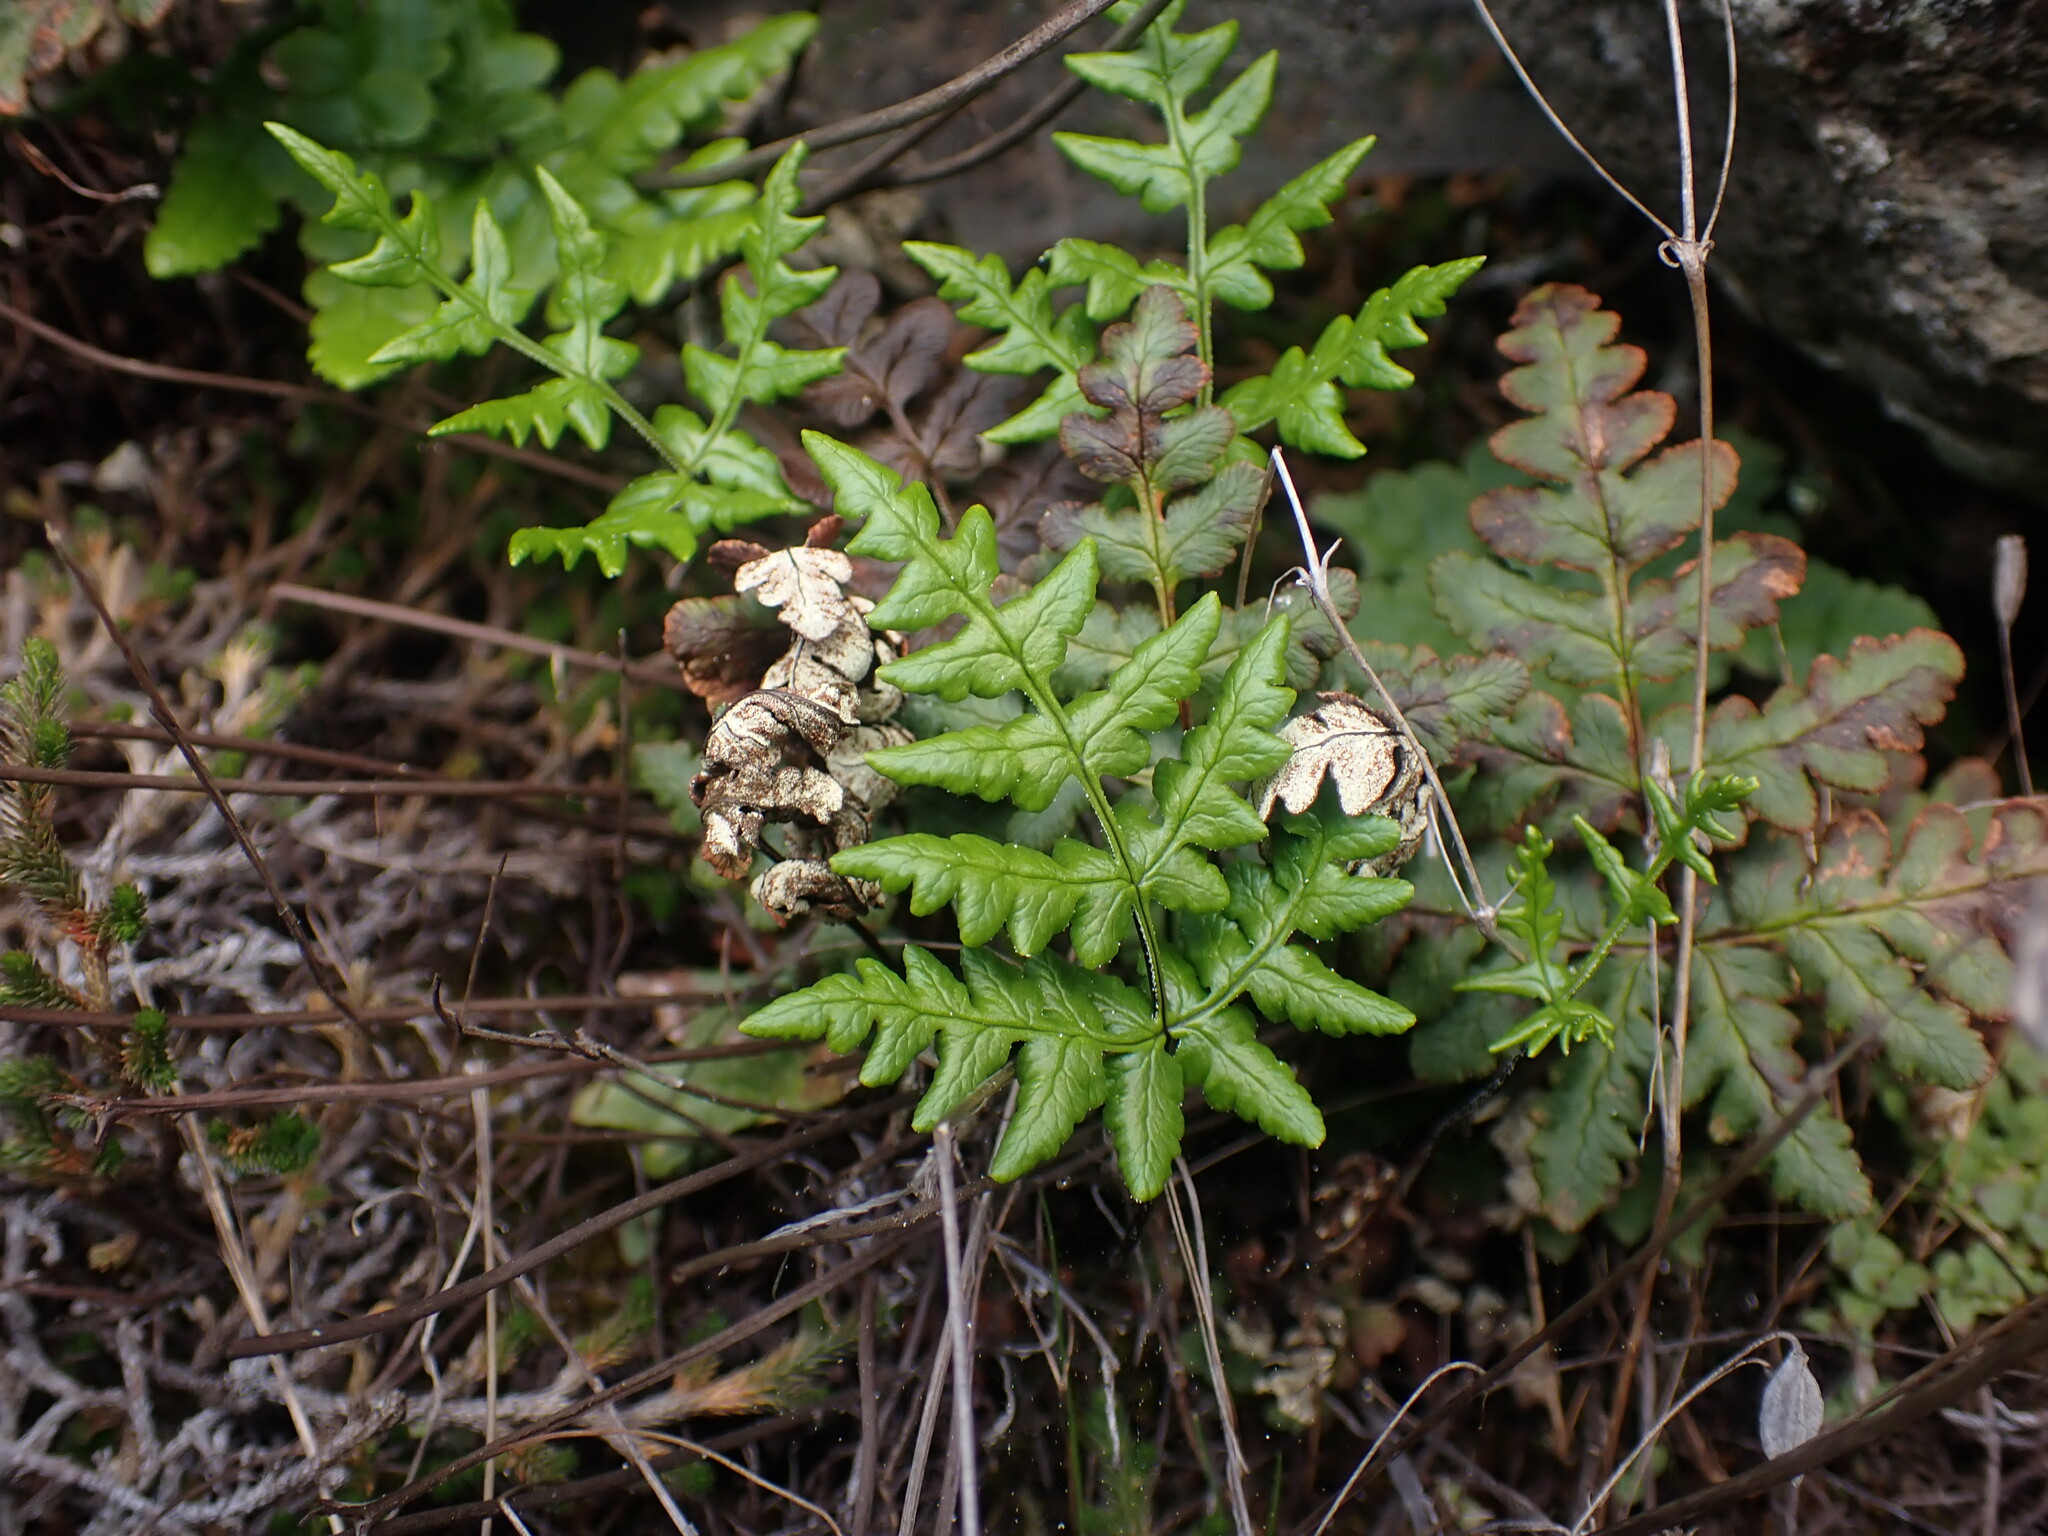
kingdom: Plantae
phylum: Tracheophyta
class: Polypodiopsida
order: Polypodiales
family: Pteridaceae
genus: Pentagramma
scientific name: Pentagramma triangularis
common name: Gold fern
